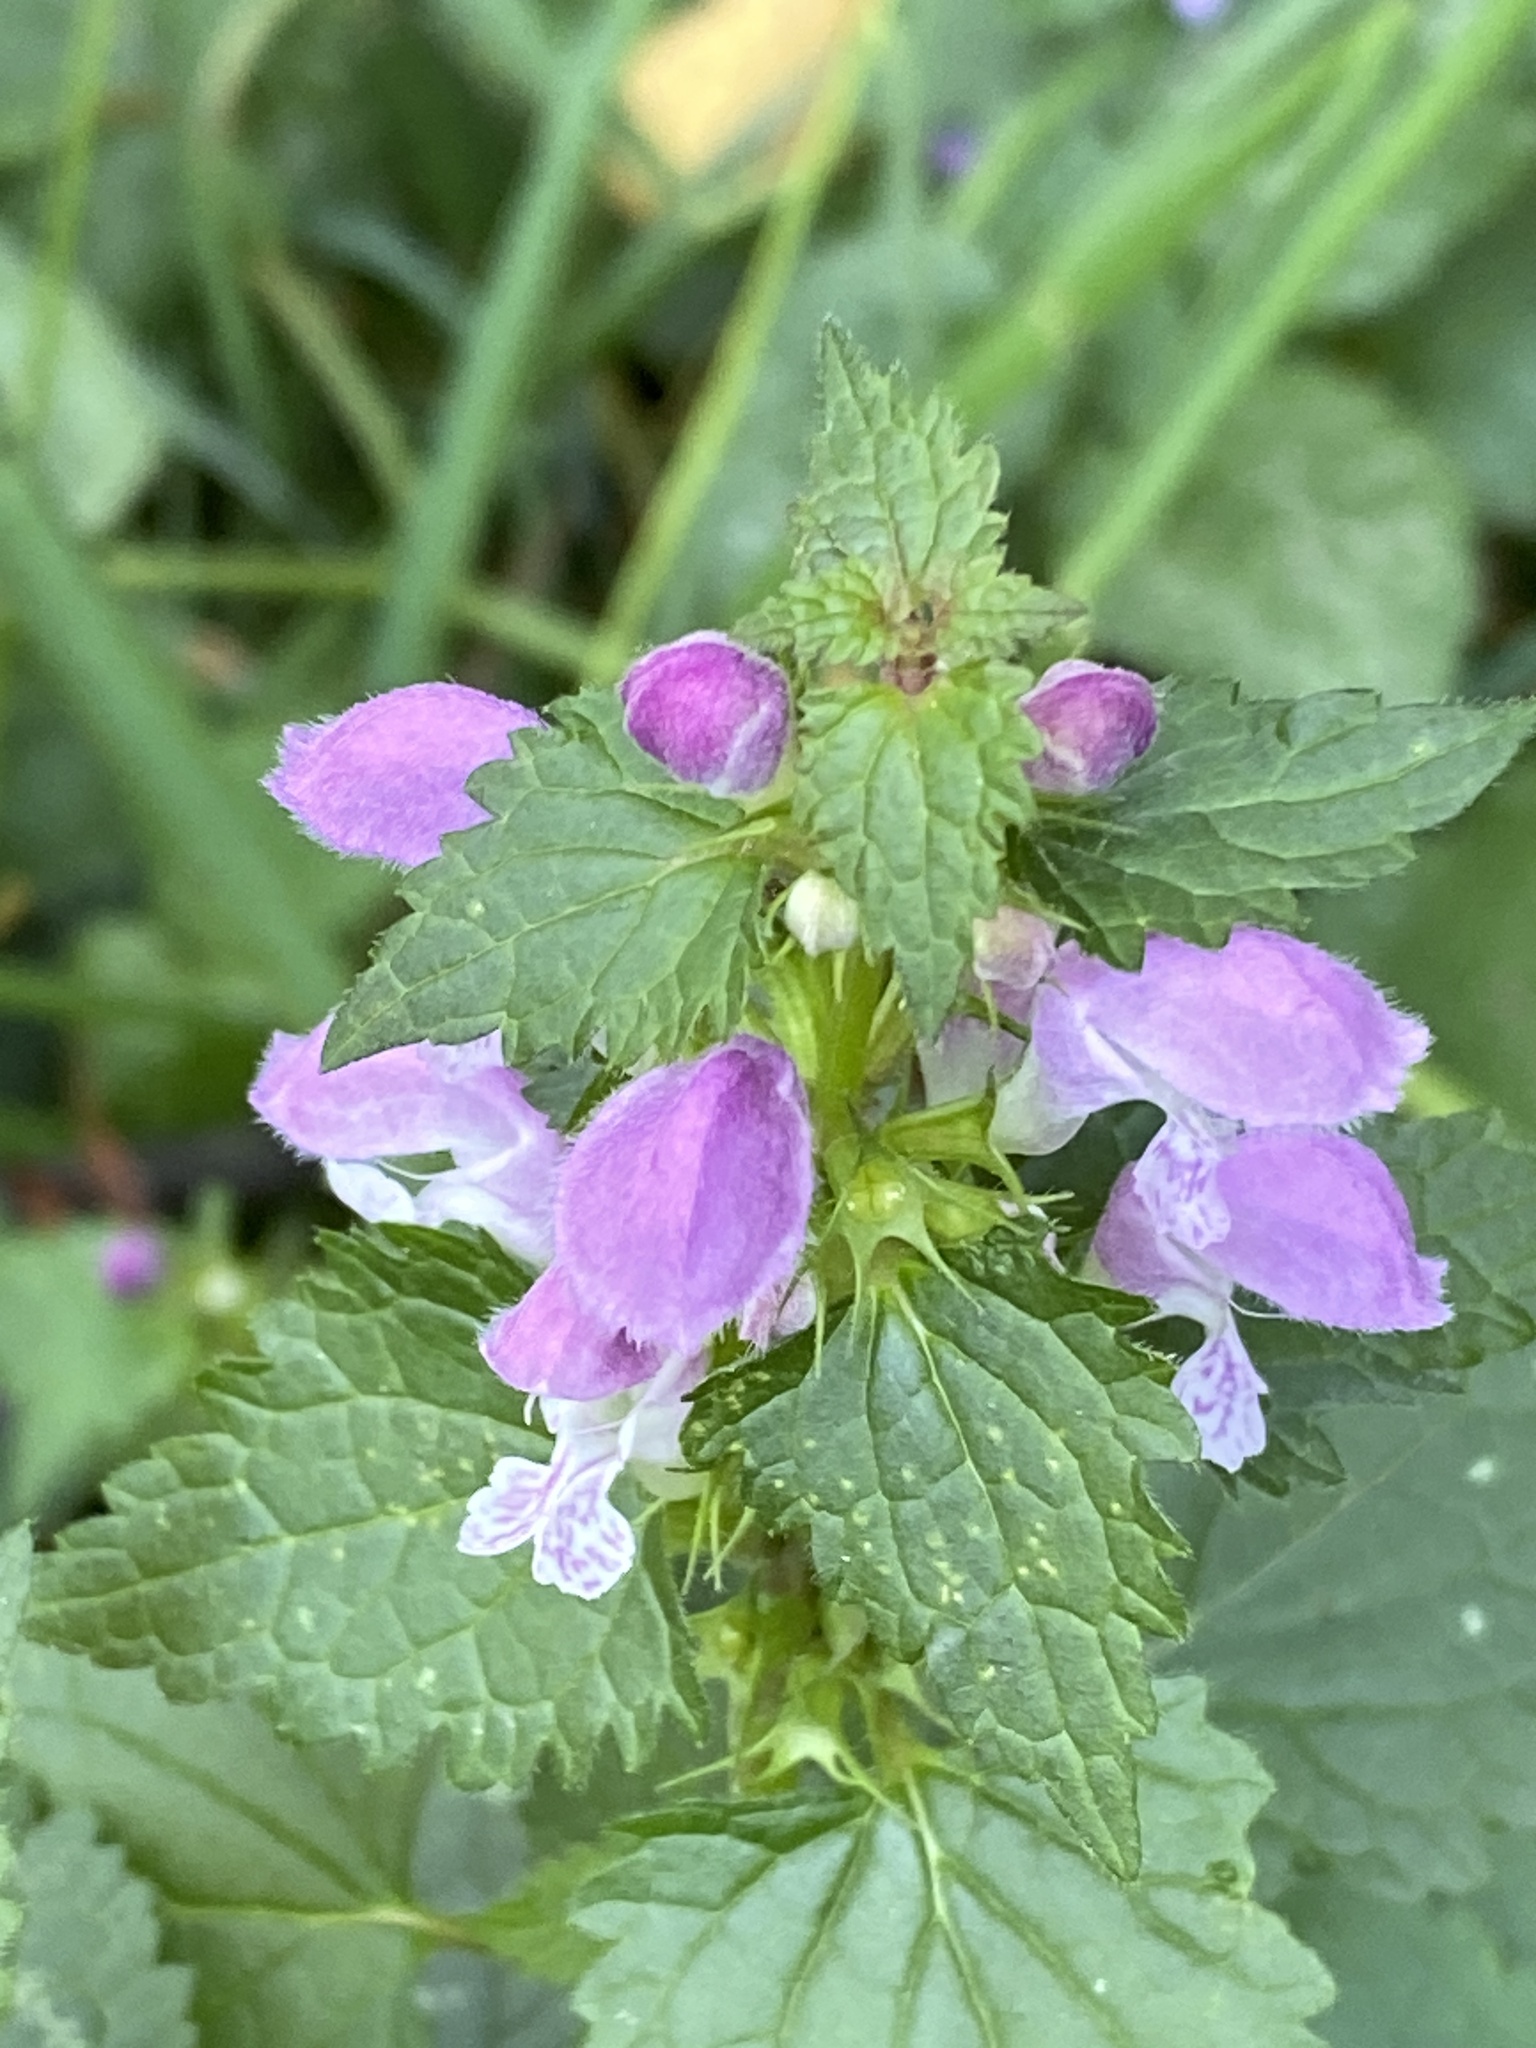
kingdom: Plantae
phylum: Tracheophyta
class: Magnoliopsida
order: Lamiales
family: Lamiaceae
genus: Lamium
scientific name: Lamium maculatum
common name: Spotted dead-nettle
